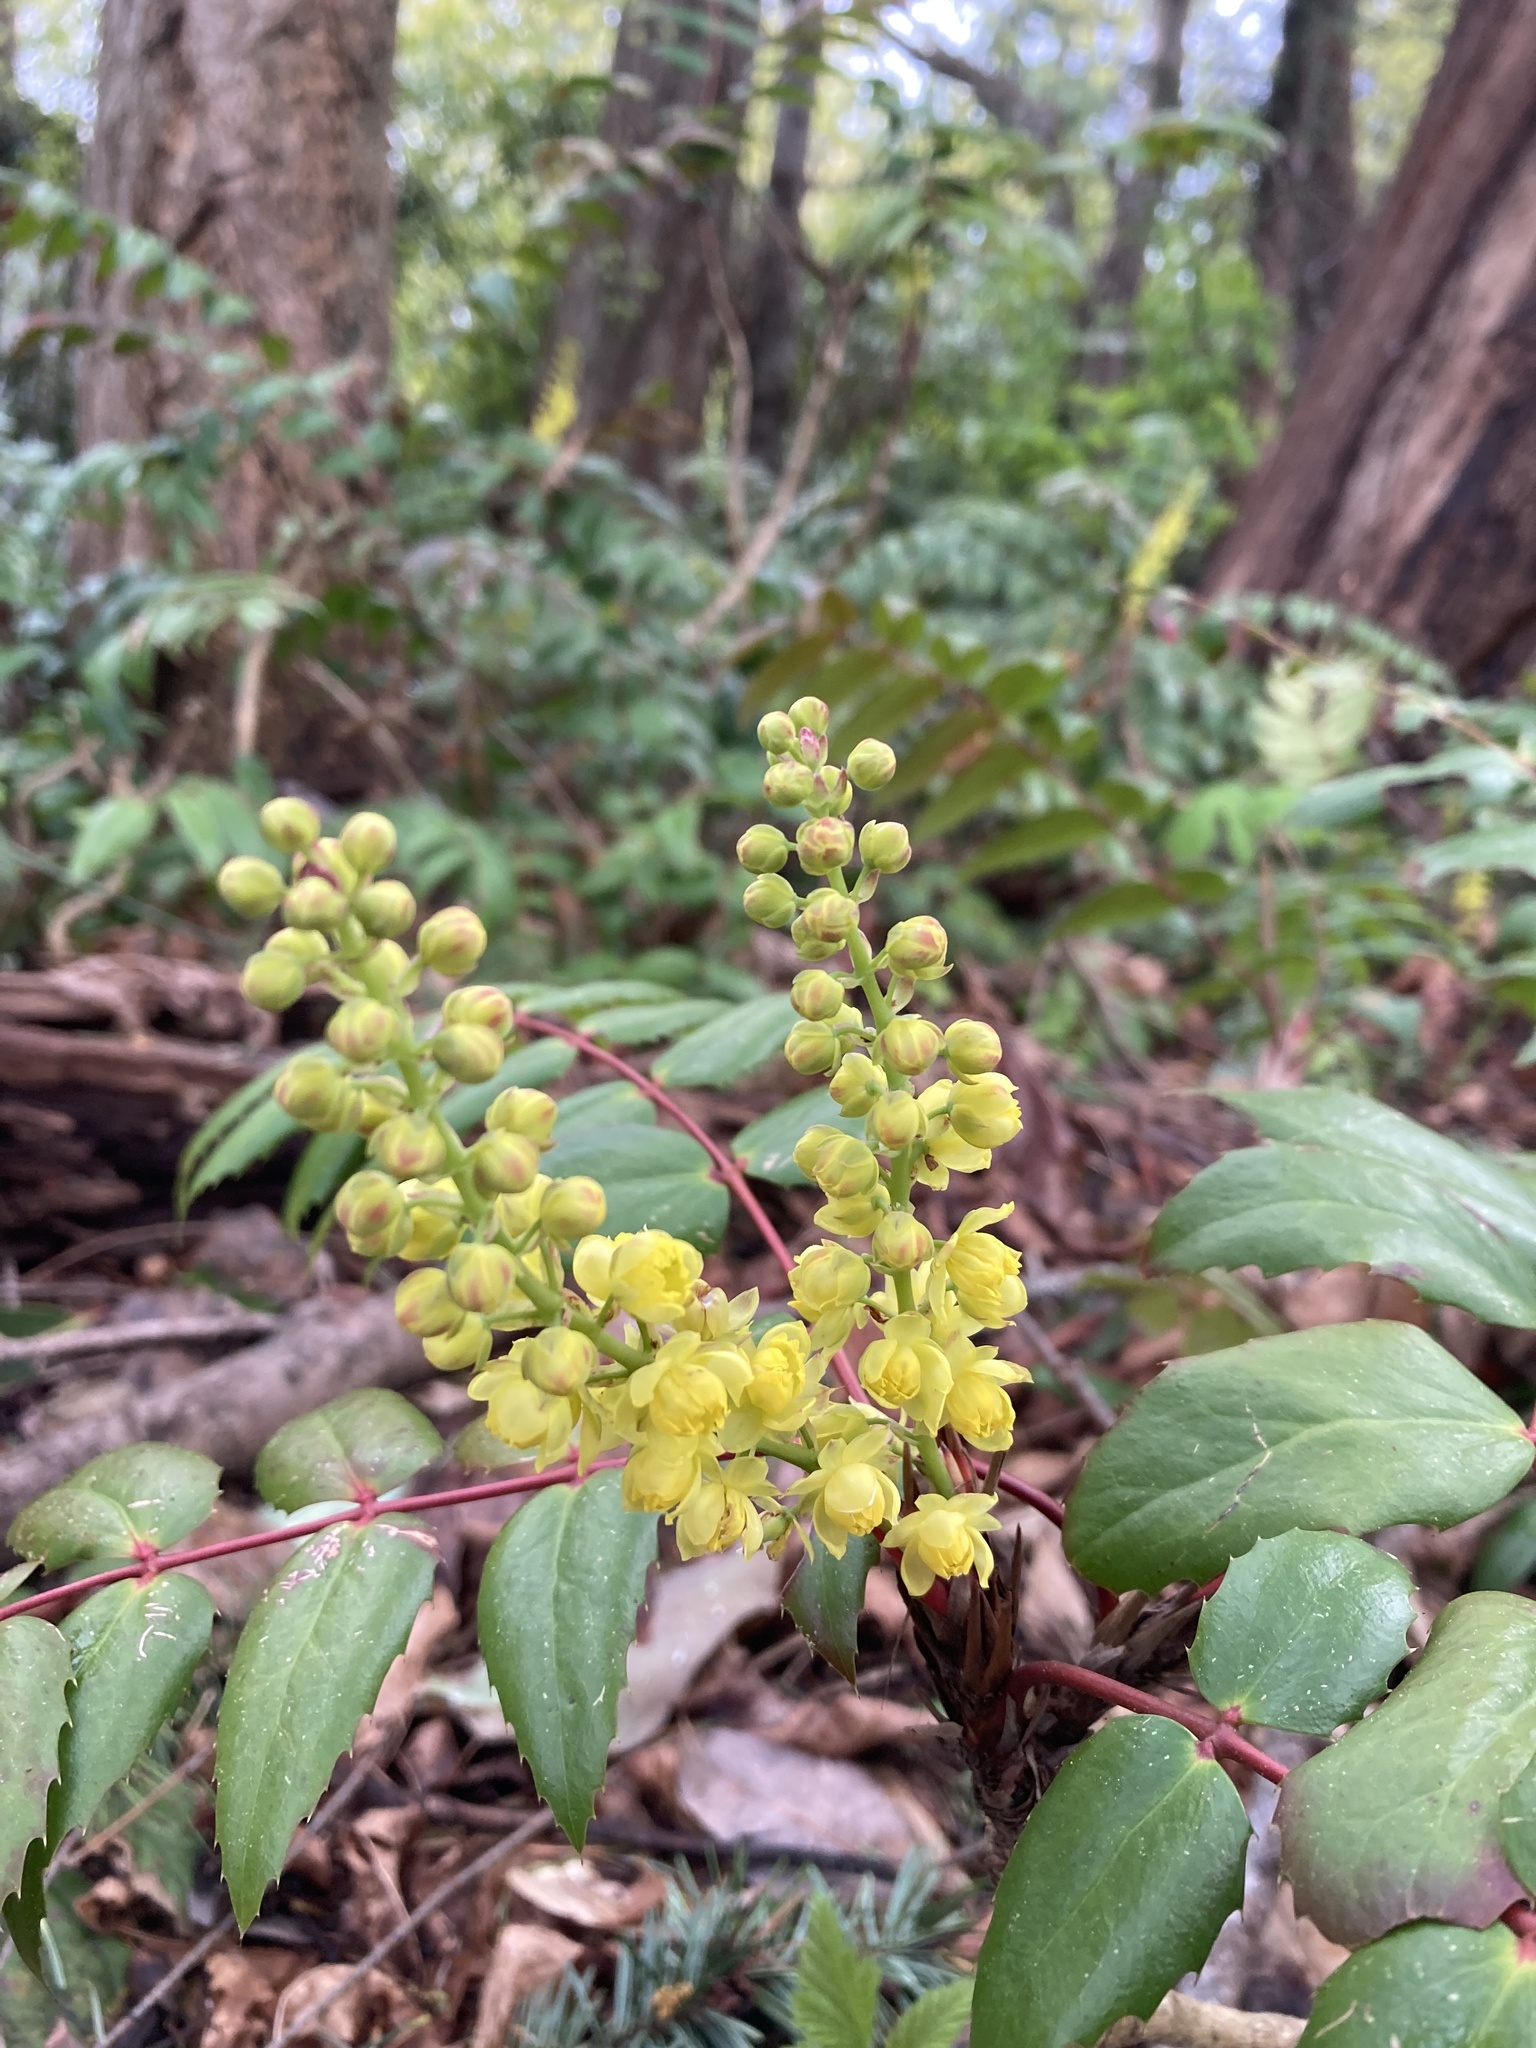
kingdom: Plantae
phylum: Tracheophyta
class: Magnoliopsida
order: Ranunculales
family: Berberidaceae
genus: Mahonia
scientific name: Mahonia nervosa
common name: Cascade oregon-grape
